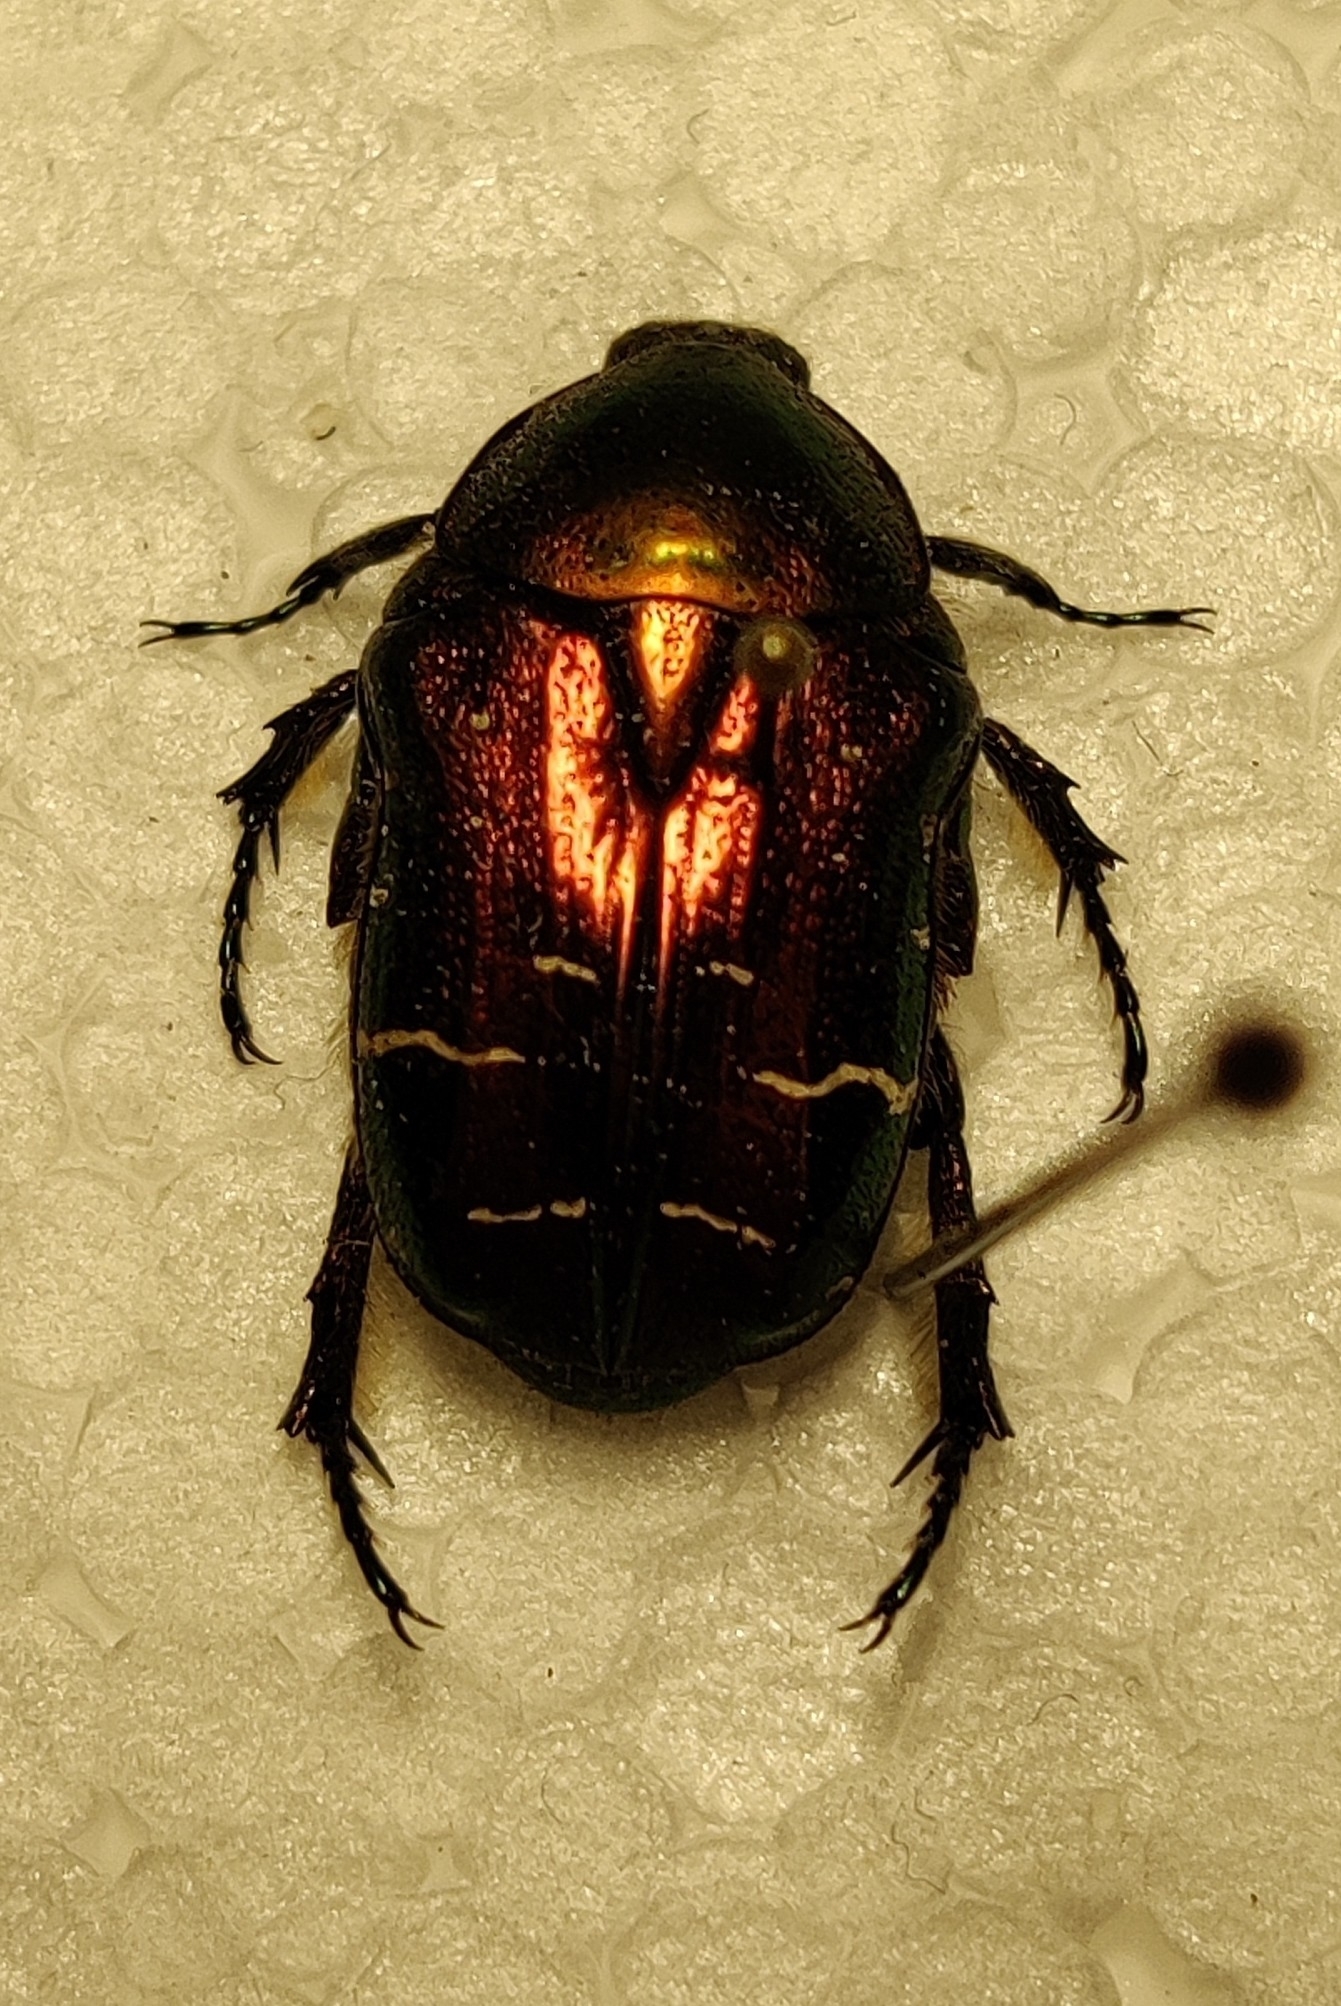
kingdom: Animalia
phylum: Arthropoda
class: Insecta
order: Coleoptera
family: Scarabaeidae
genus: Cetonia
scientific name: Cetonia aurata
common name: Rose chafer
